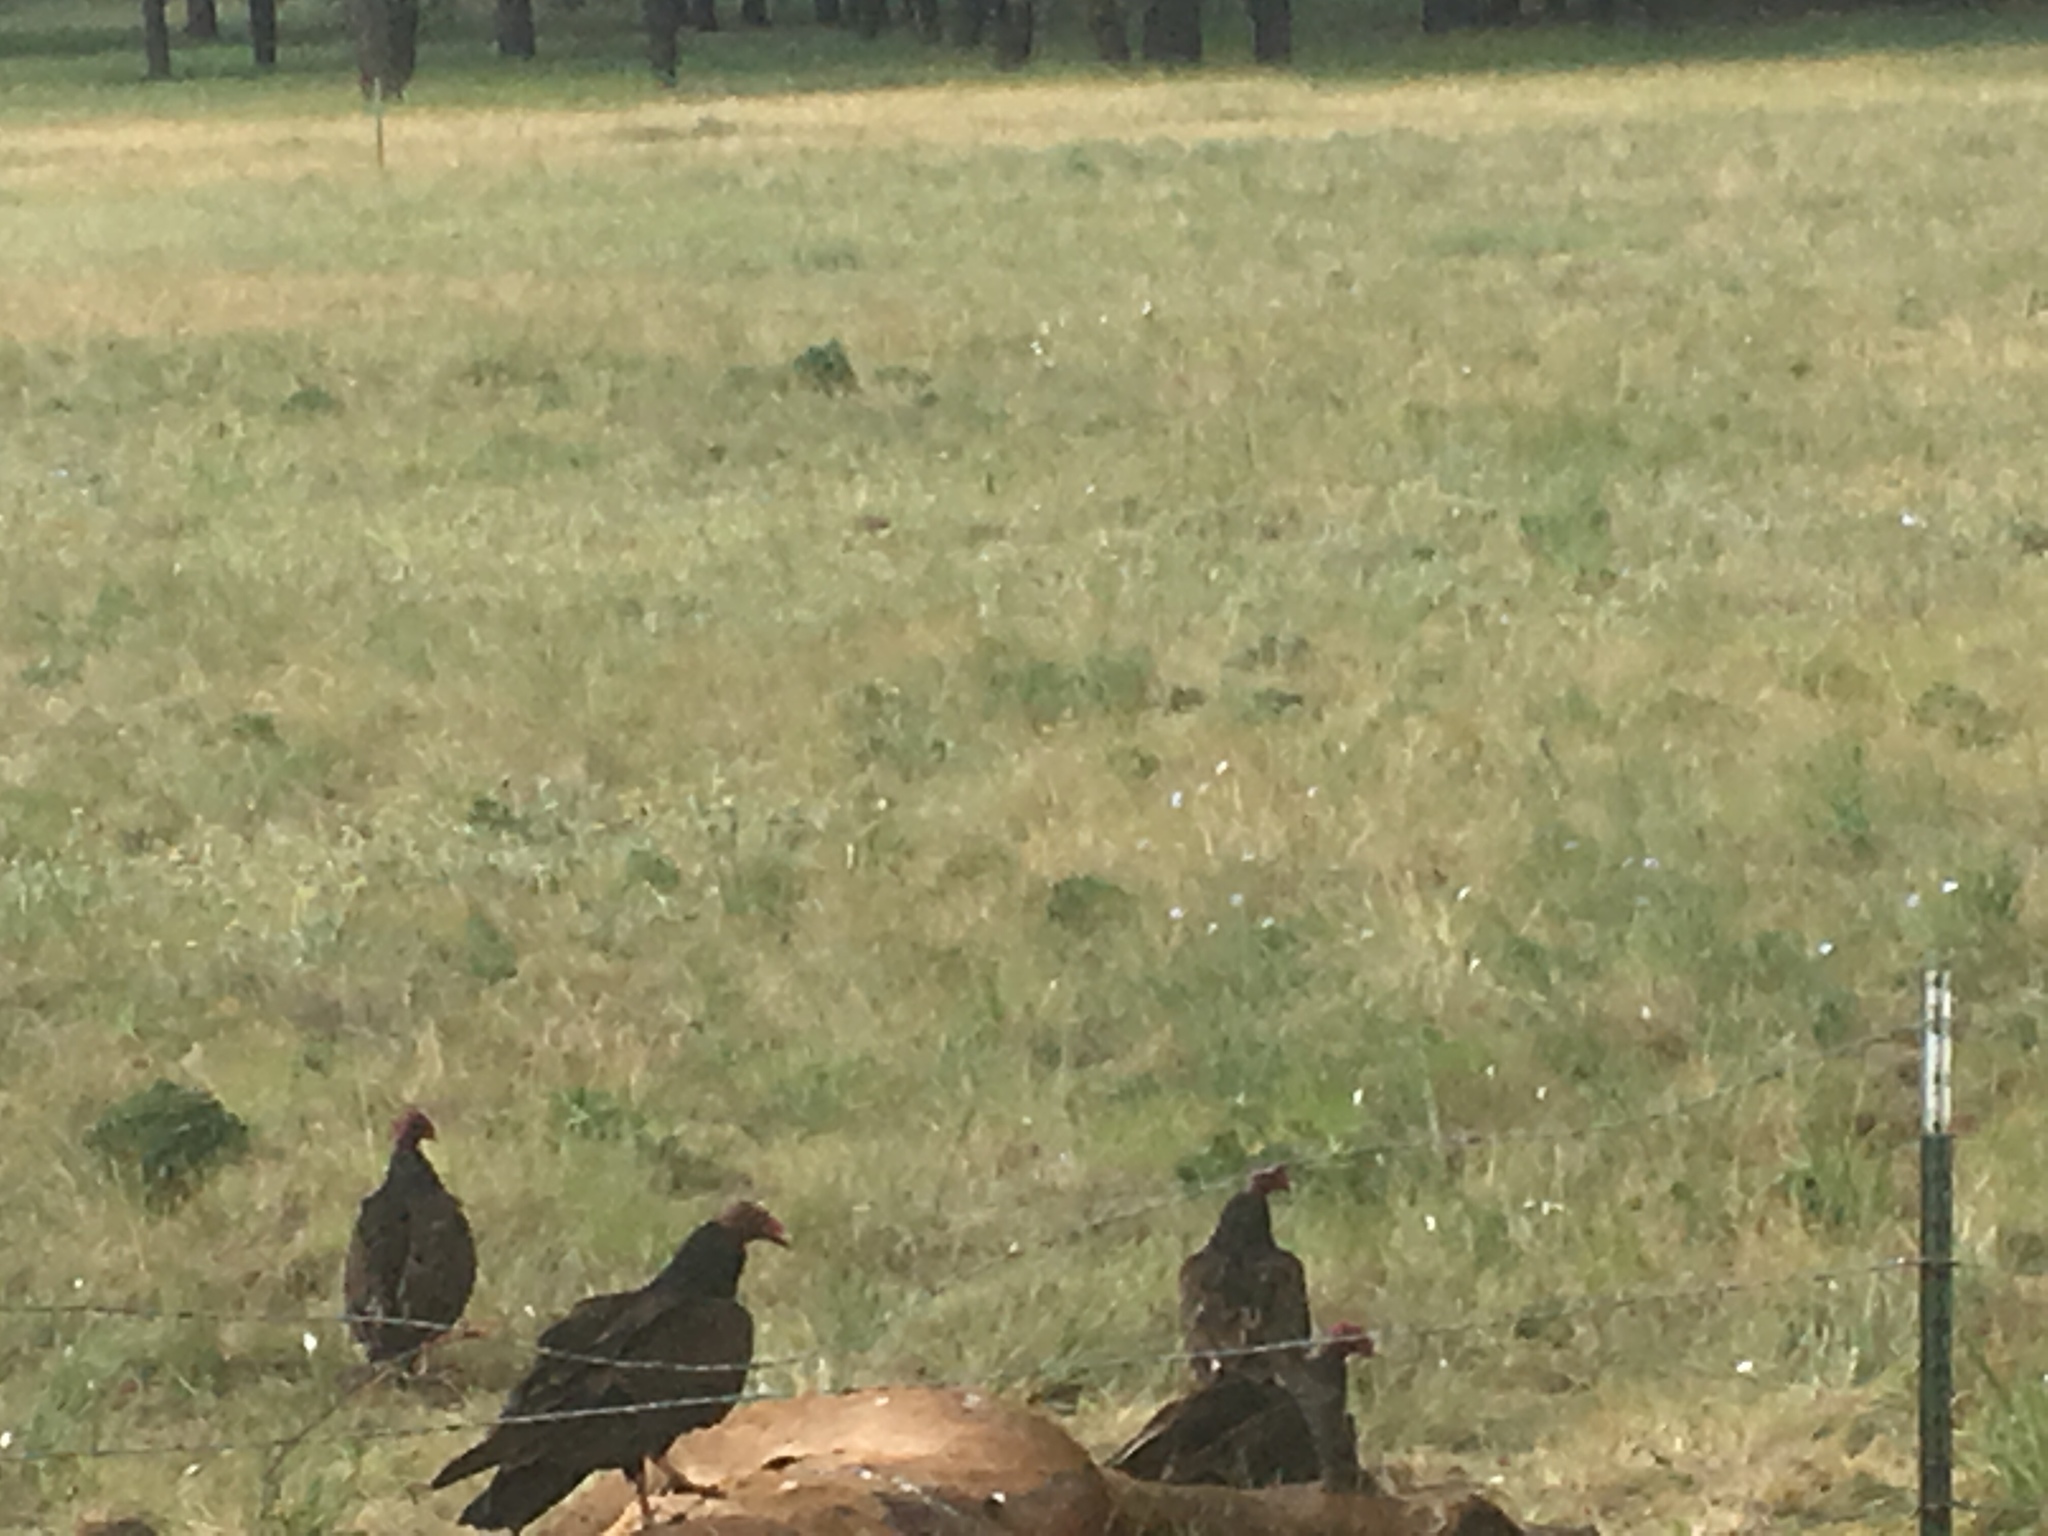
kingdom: Animalia
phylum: Chordata
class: Aves
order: Accipitriformes
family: Cathartidae
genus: Cathartes
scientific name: Cathartes aura
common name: Turkey vulture
